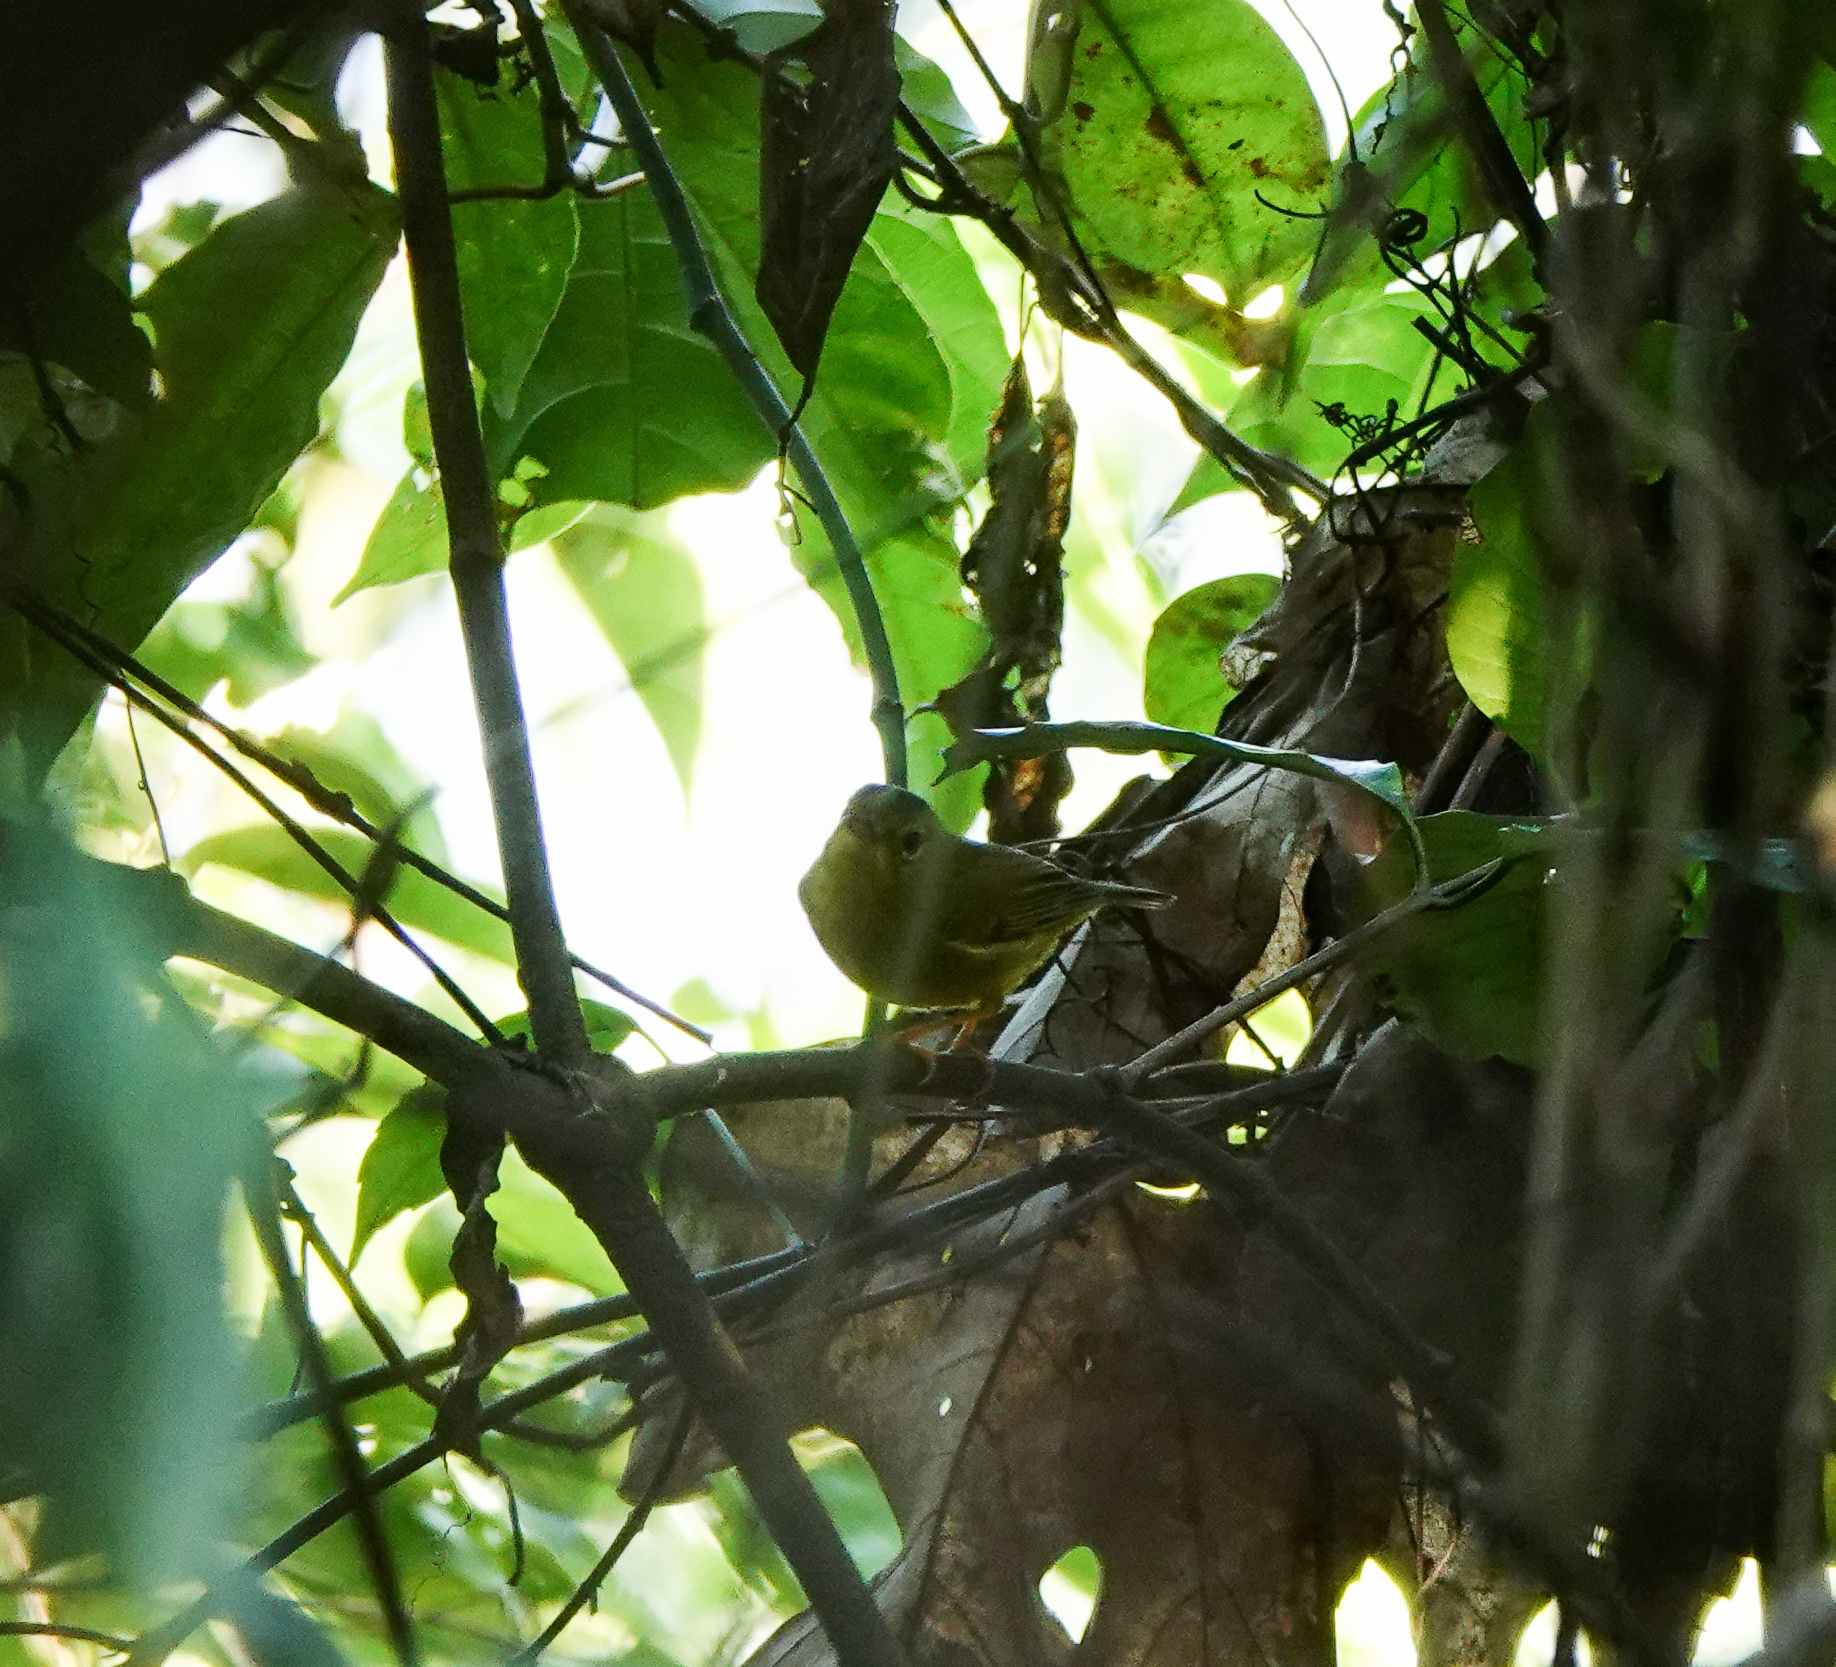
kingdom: Animalia
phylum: Chordata
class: Aves
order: Passeriformes
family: Phylloscopidae
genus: Seicercus
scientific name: Seicercus burkii
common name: Green-crowned warbler
